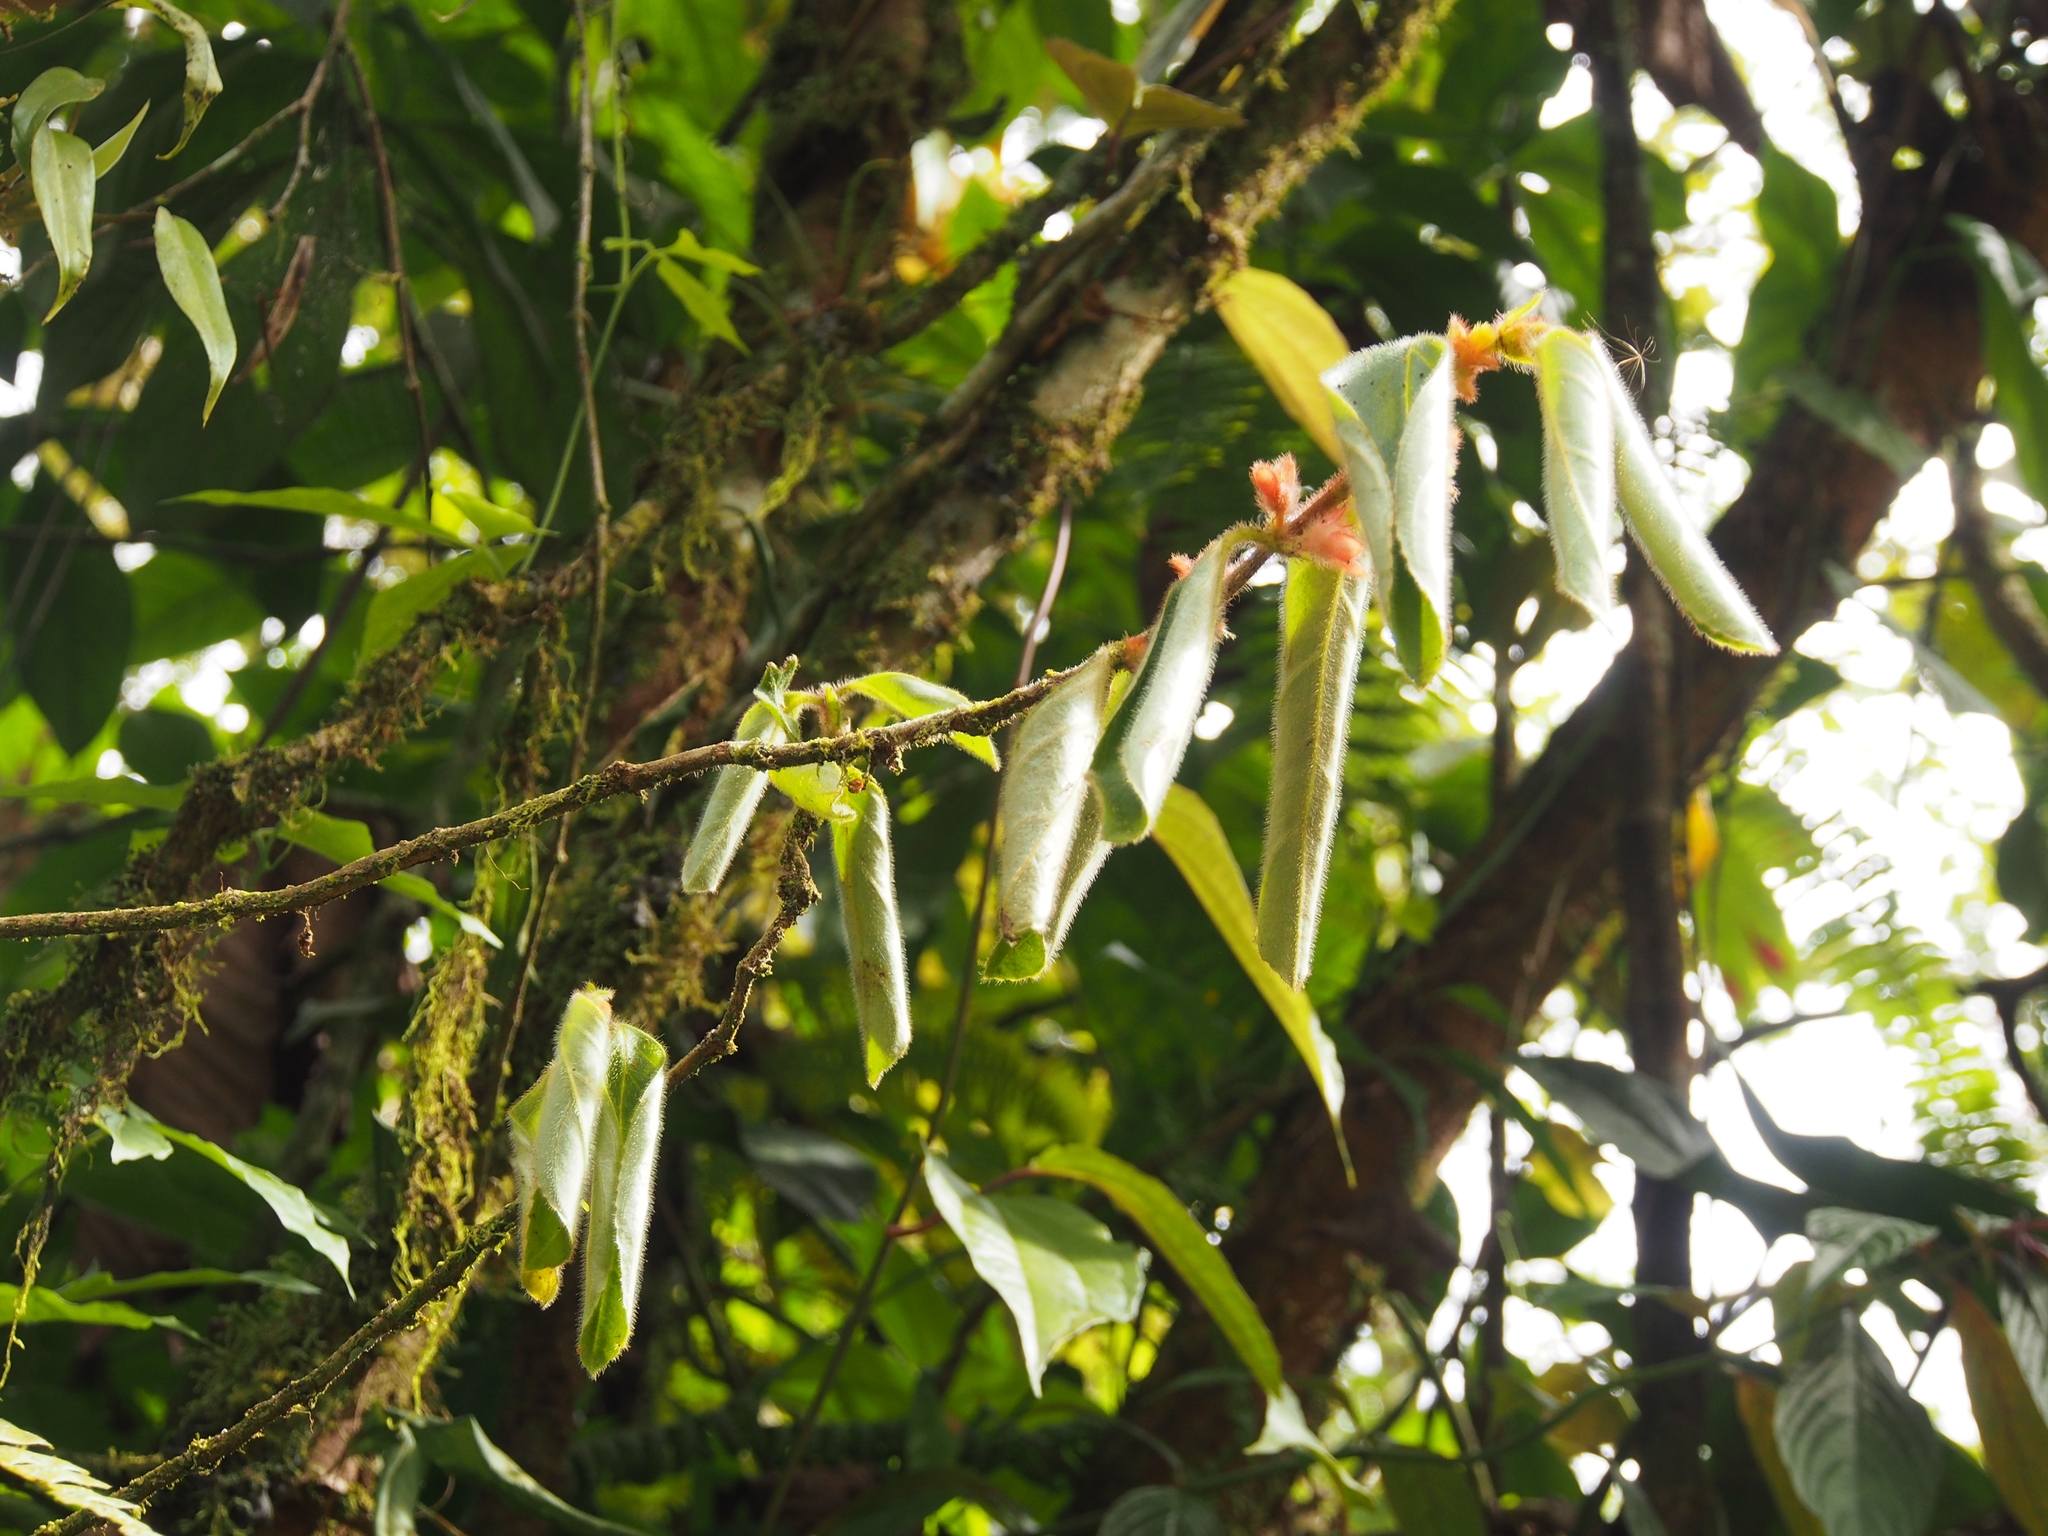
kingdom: Plantae
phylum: Tracheophyta
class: Magnoliopsida
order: Lamiales
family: Gesneriaceae
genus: Columnea
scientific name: Columnea parviflora
